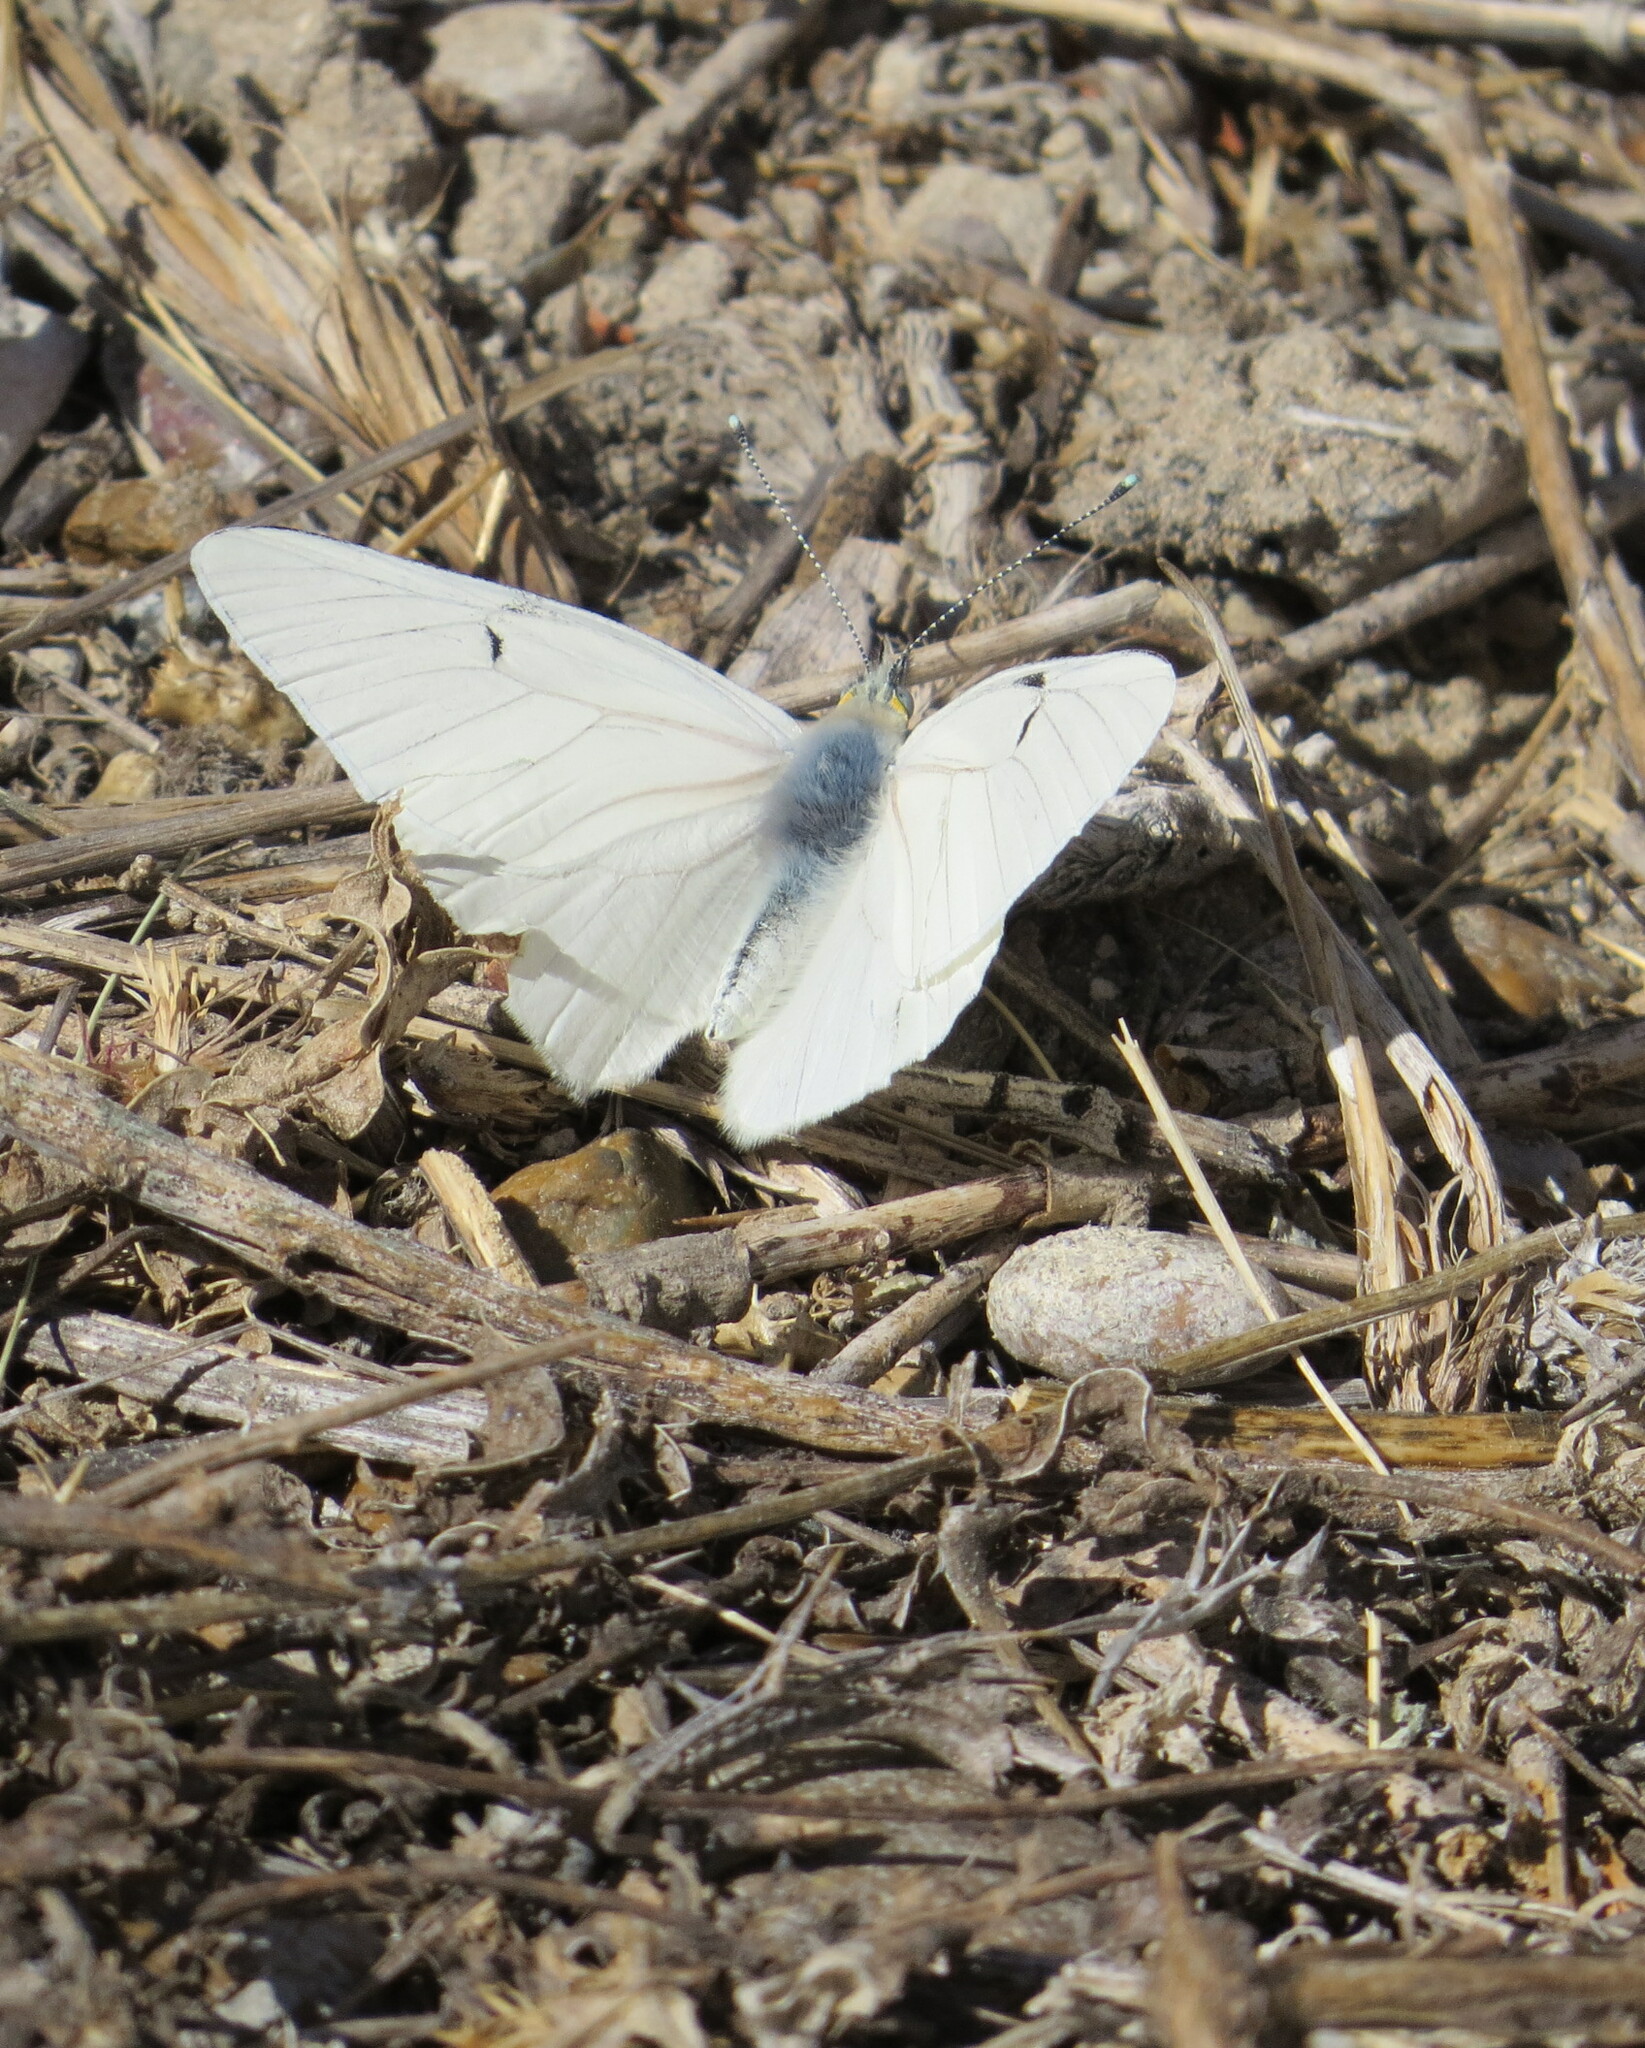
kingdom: Animalia
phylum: Arthropoda
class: Insecta
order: Lepidoptera
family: Pieridae
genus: Tatochila
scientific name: Tatochila mercedis
